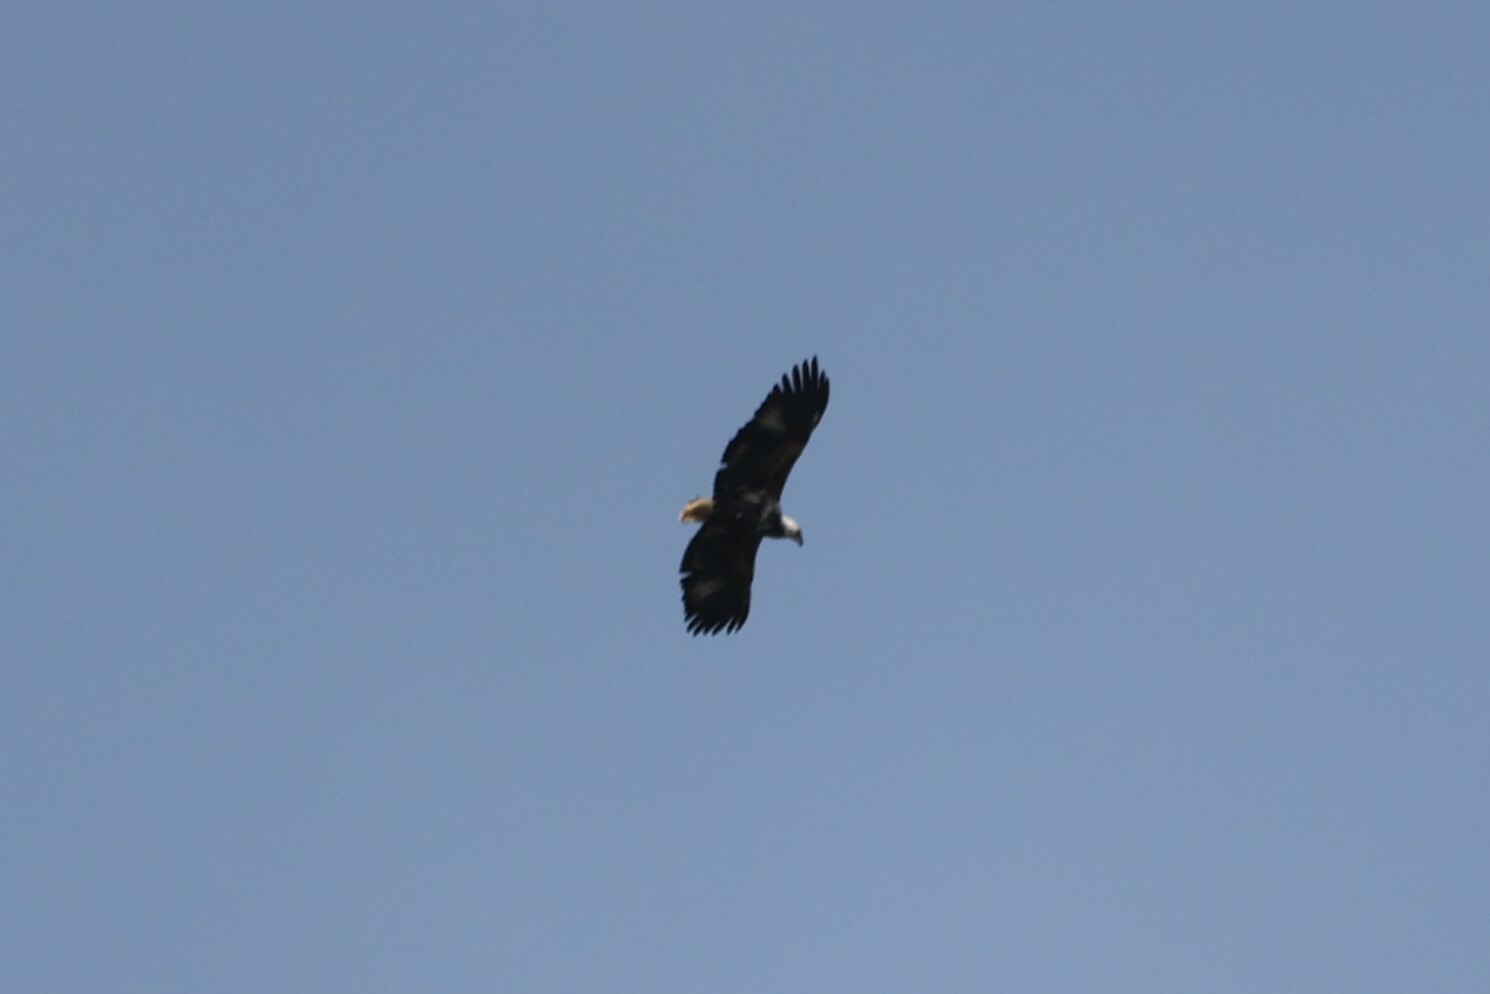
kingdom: Animalia
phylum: Chordata
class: Aves
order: Accipitriformes
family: Accipitridae
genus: Haliaeetus
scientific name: Haliaeetus vocifer
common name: African fish eagle
